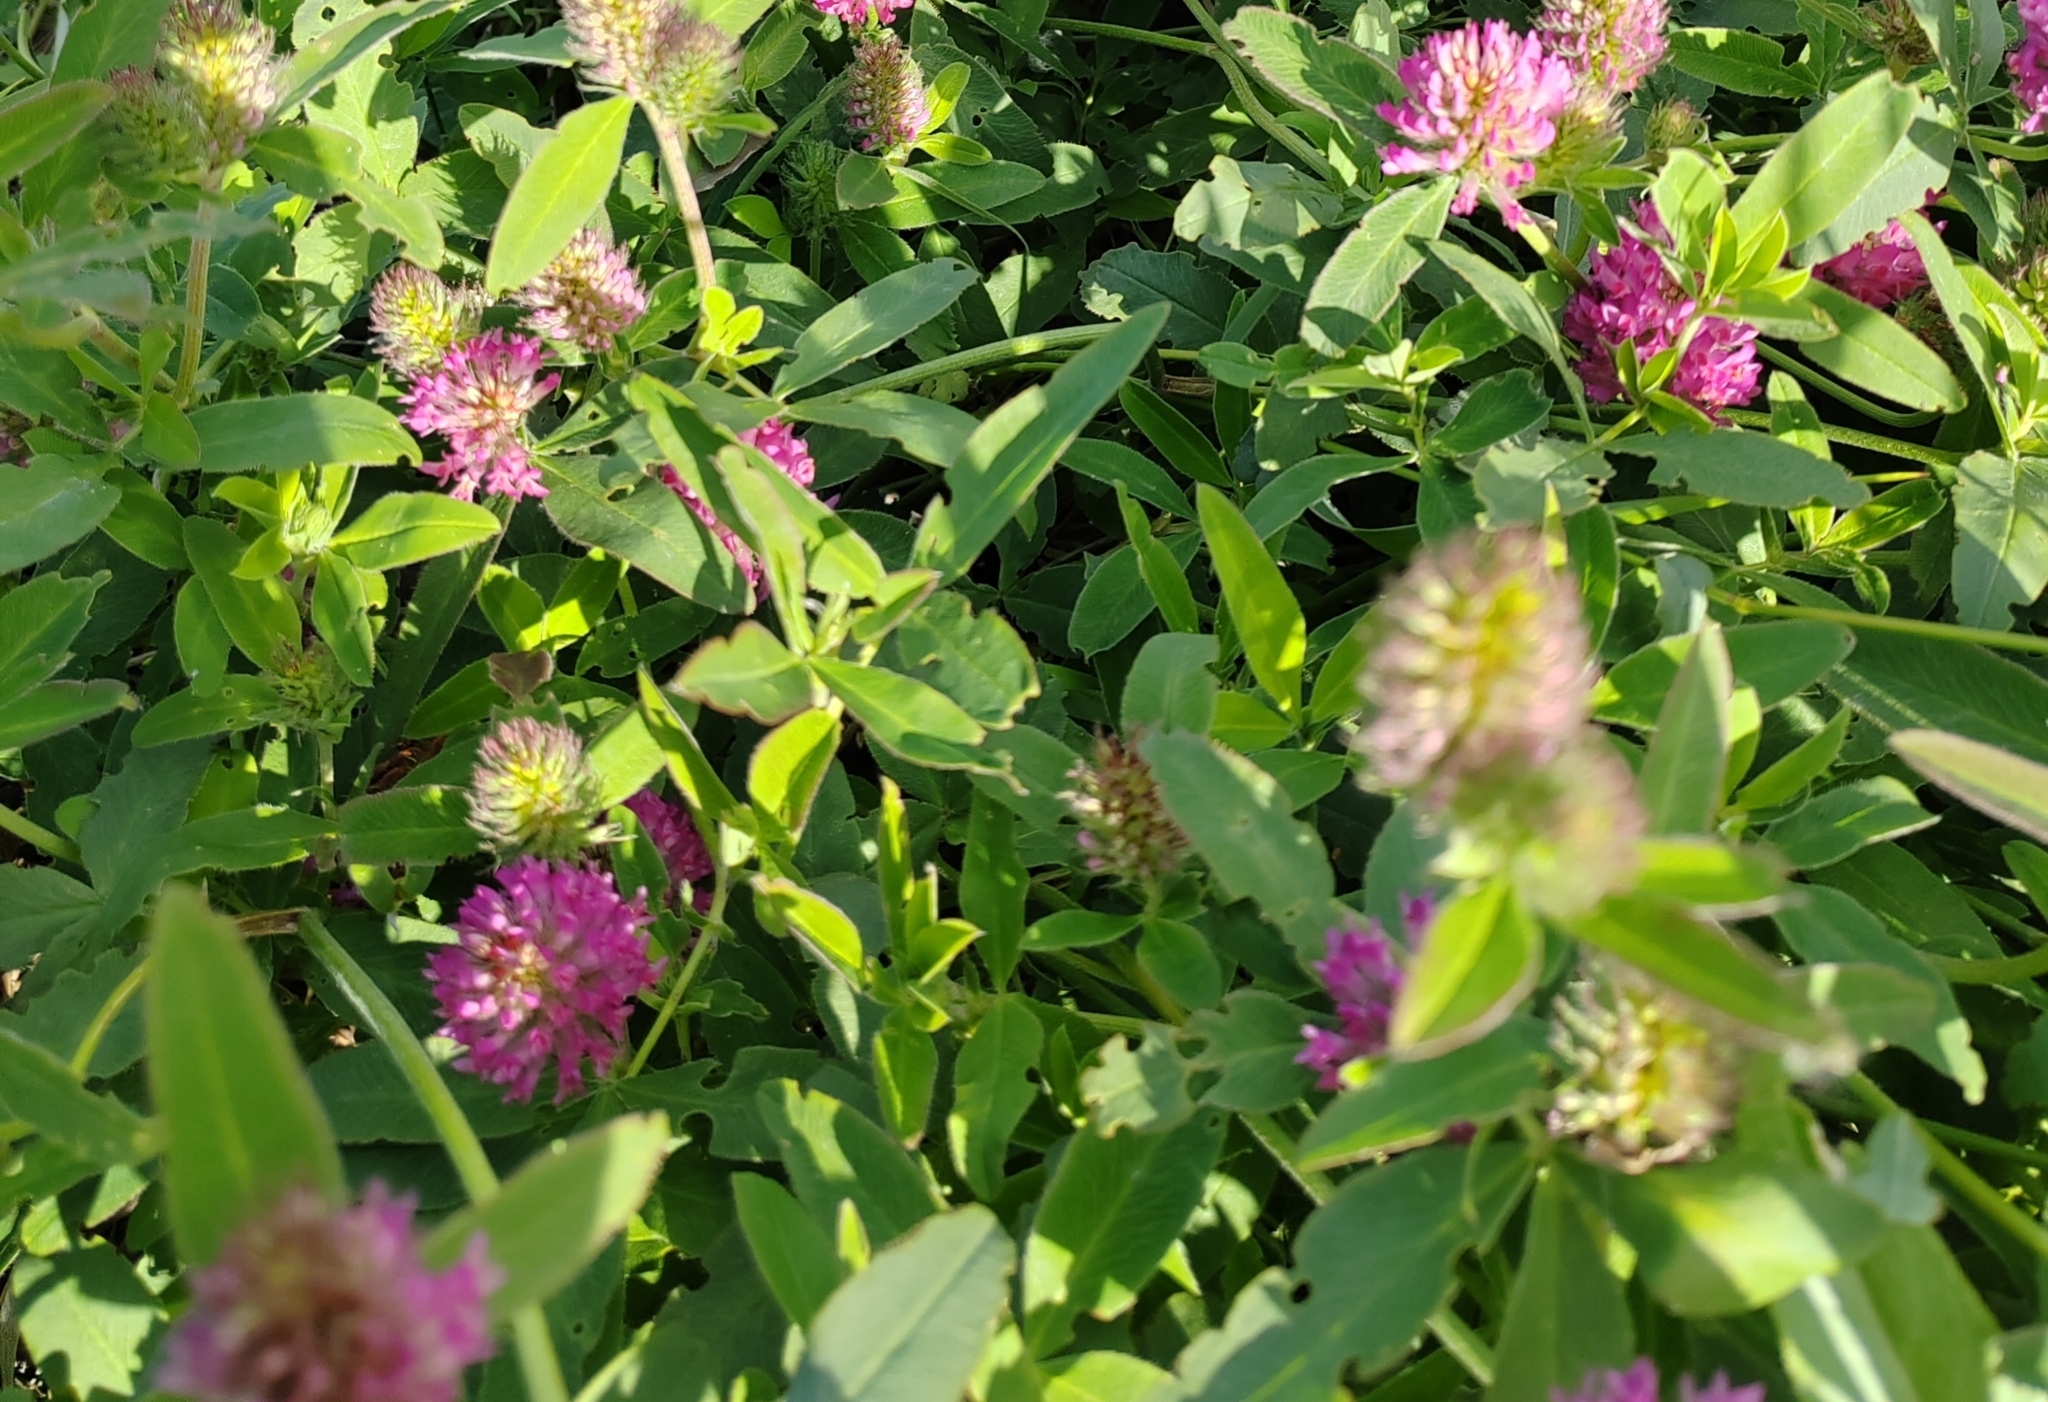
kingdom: Plantae
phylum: Tracheophyta
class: Magnoliopsida
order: Fabales
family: Fabaceae
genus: Trifolium
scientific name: Trifolium medium
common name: Zigzag clover
